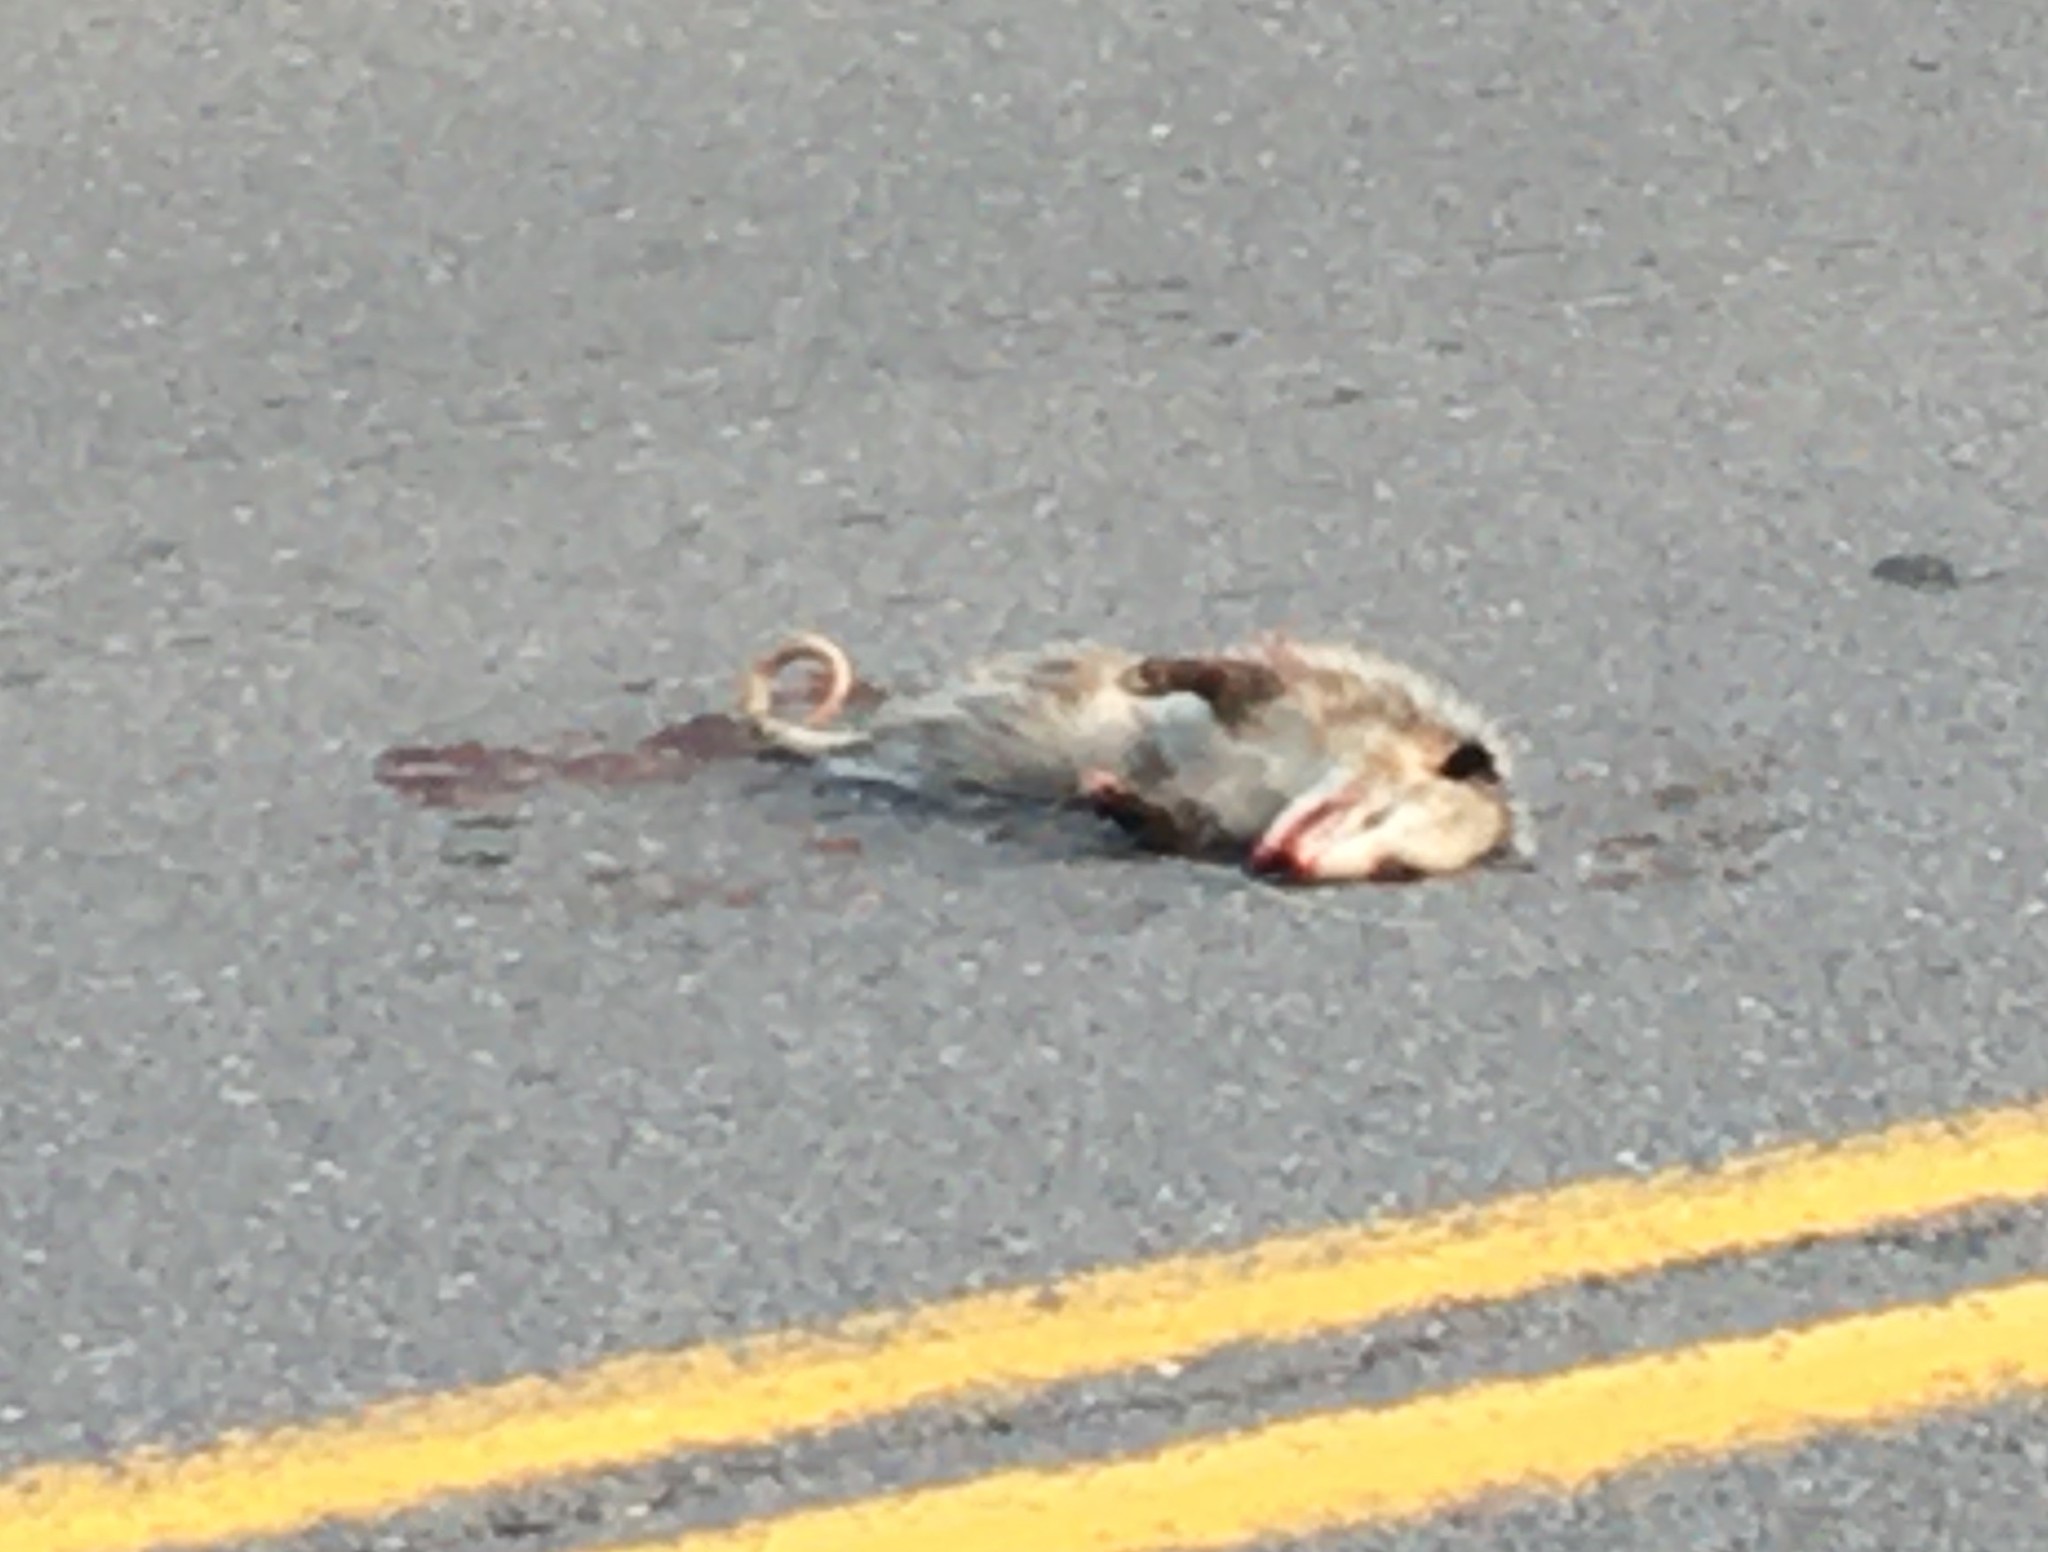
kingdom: Animalia
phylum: Chordata
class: Mammalia
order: Didelphimorphia
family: Didelphidae
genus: Didelphis
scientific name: Didelphis virginiana
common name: Virginia opossum
